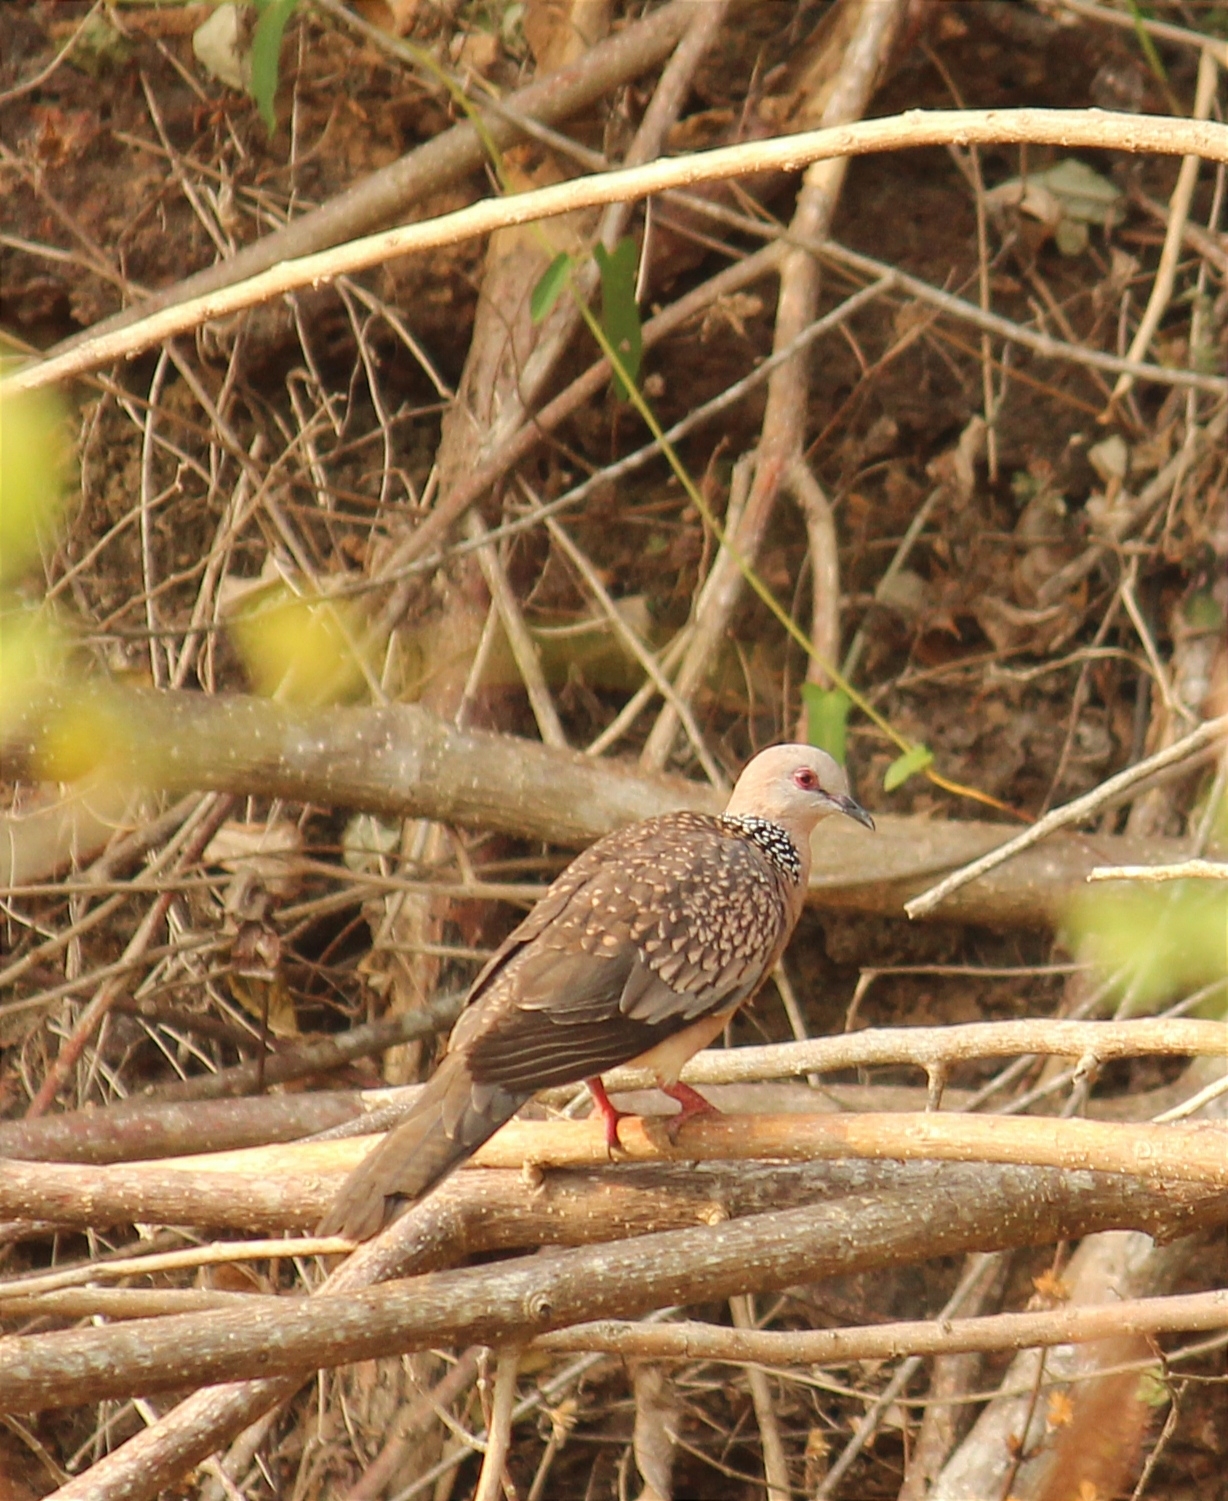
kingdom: Animalia
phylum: Chordata
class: Aves
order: Columbiformes
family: Columbidae
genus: Spilopelia
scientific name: Spilopelia chinensis
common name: Spotted dove
